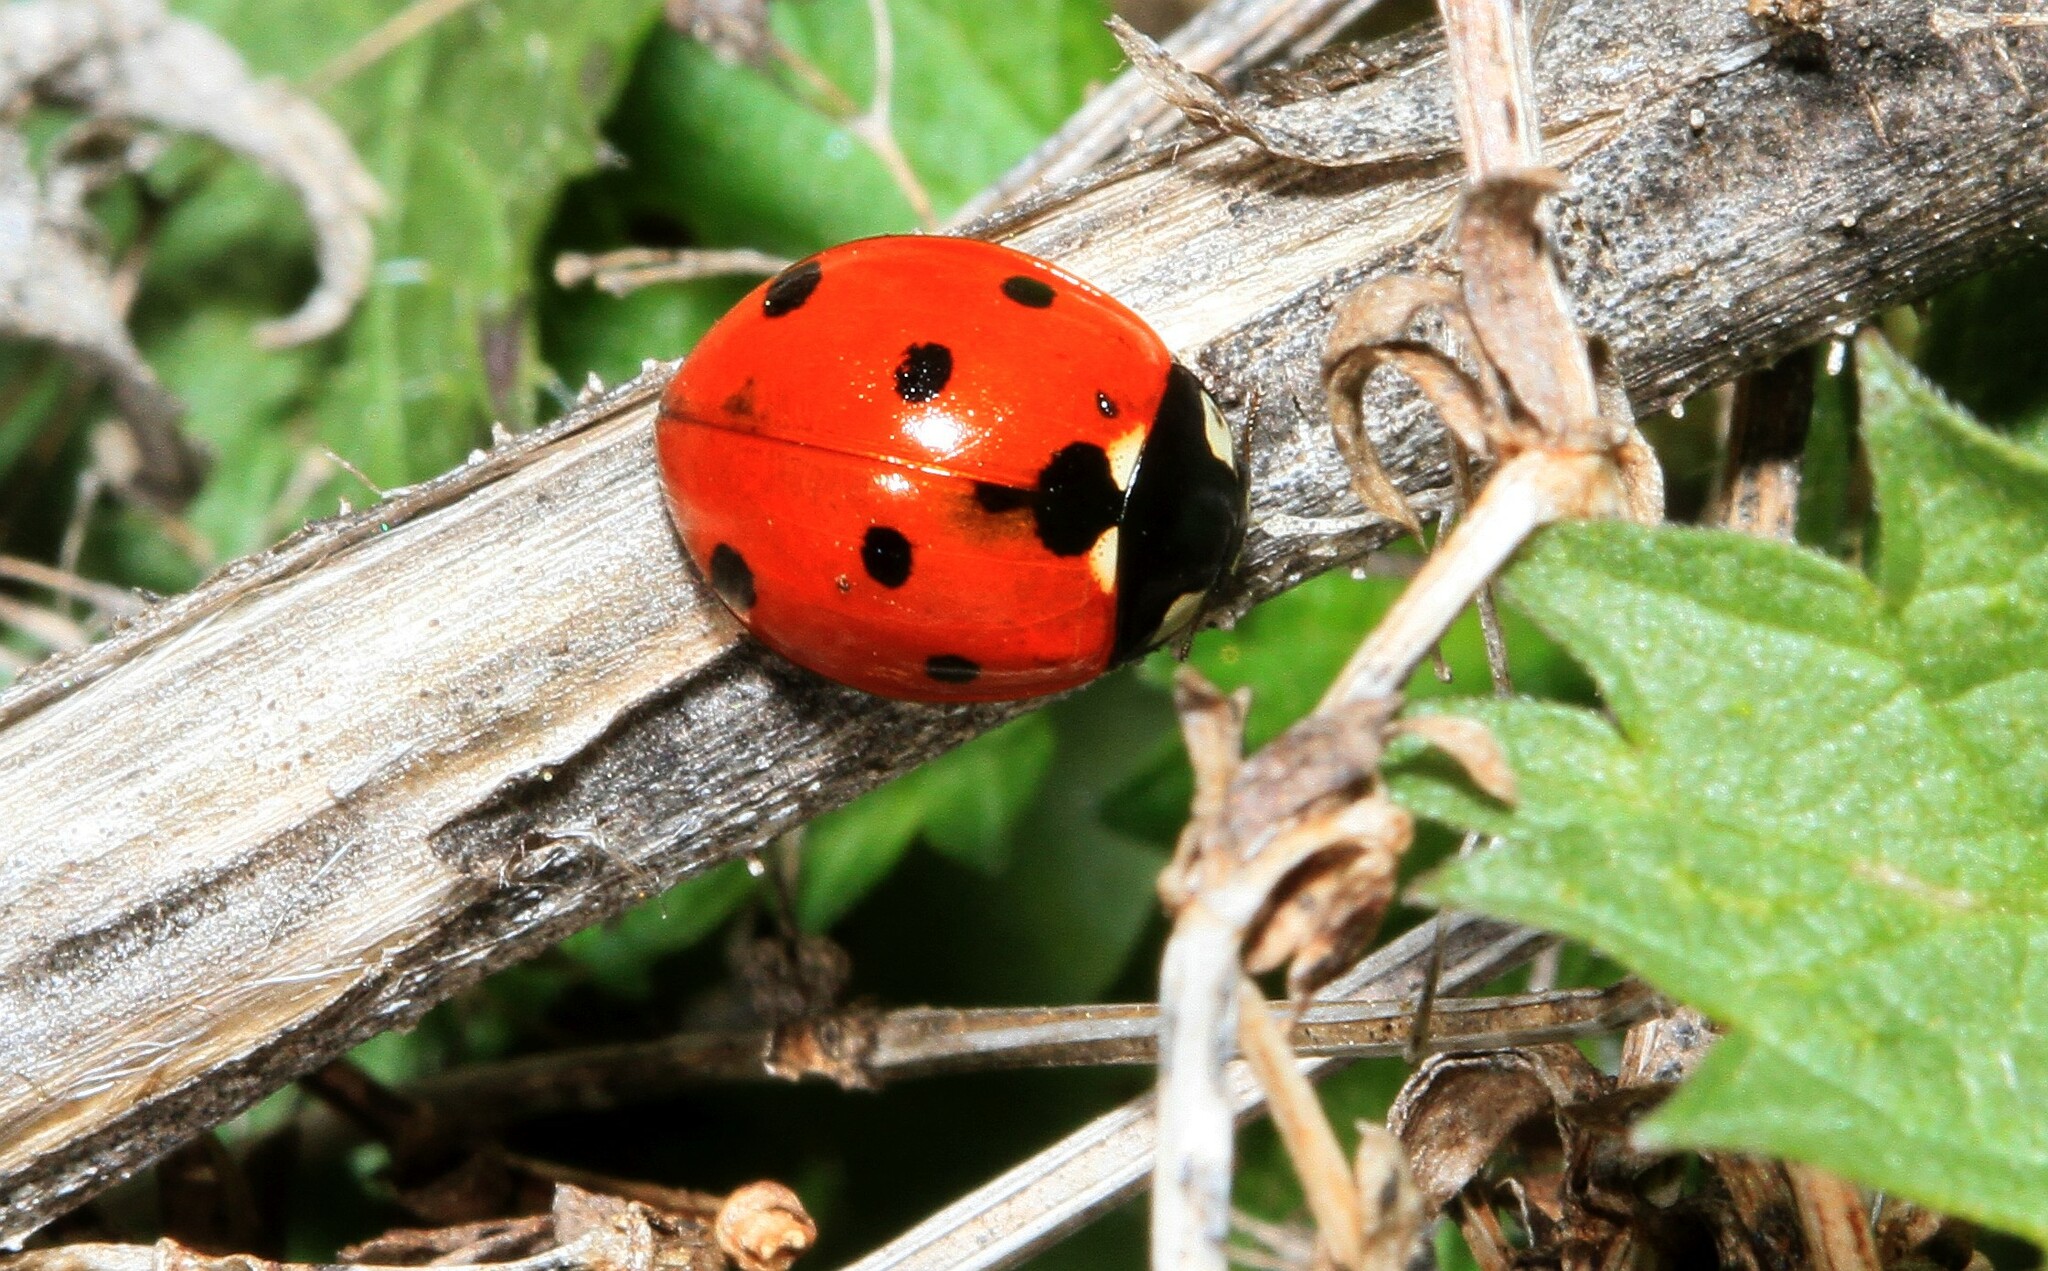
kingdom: Animalia
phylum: Arthropoda
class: Insecta
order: Coleoptera
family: Coccinellidae
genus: Coccinella
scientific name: Coccinella septempunctata
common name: Sevenspotted lady beetle
